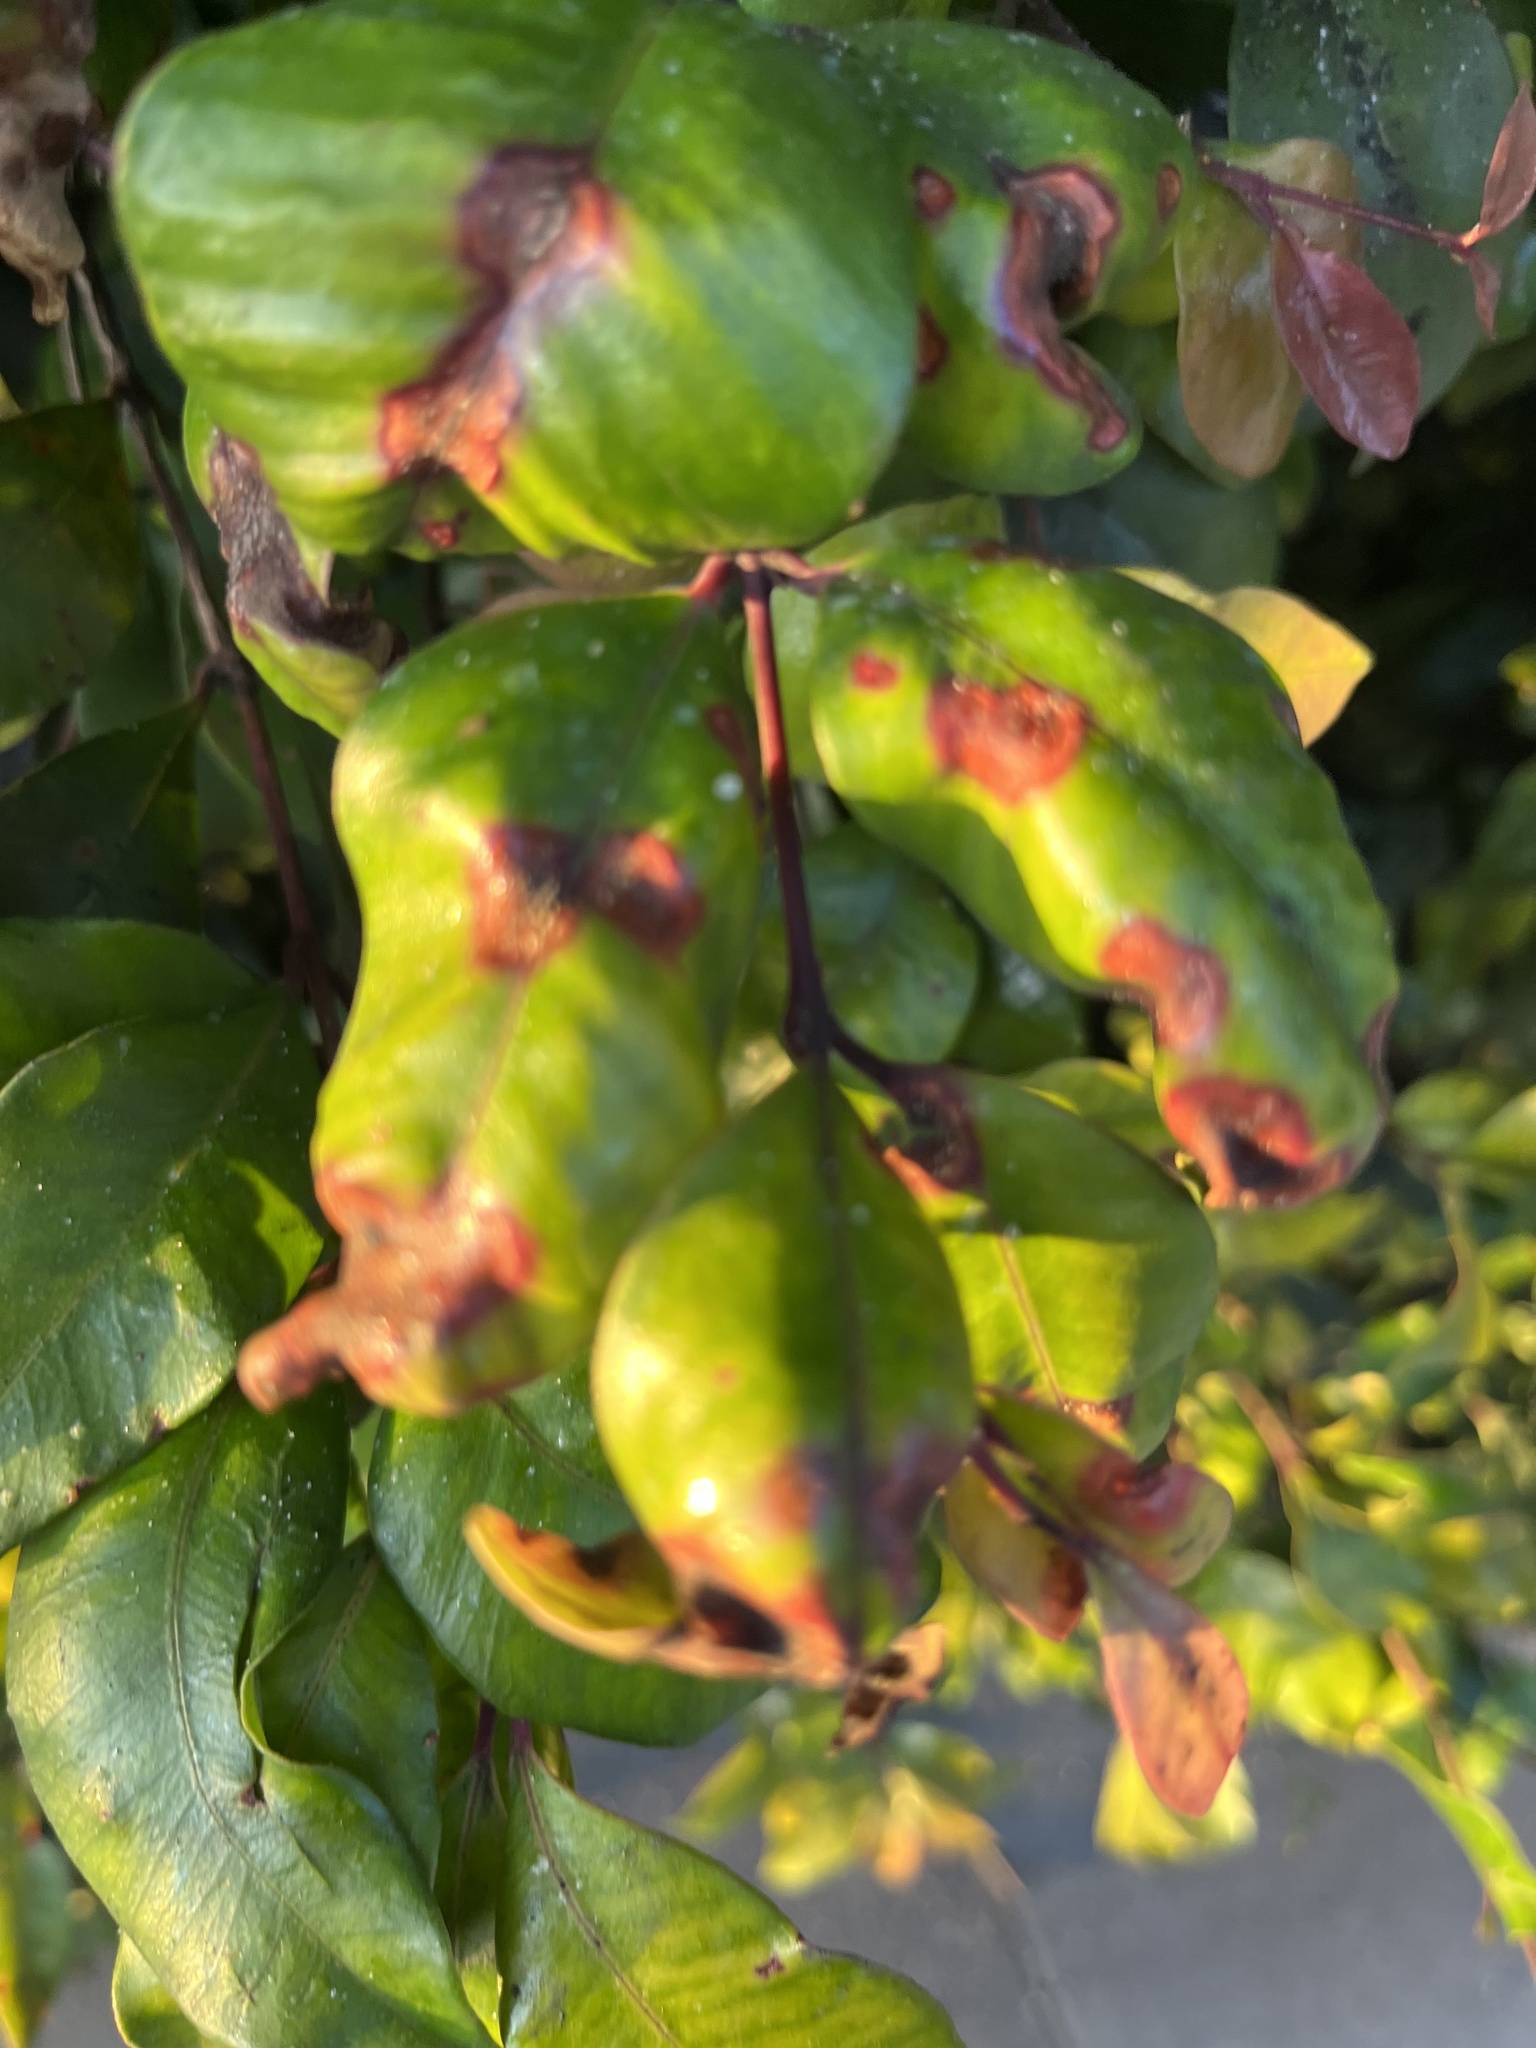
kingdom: Fungi
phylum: Basidiomycota
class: Pucciniomycetes
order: Pucciniales
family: Sphaerophragmiaceae
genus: Austropuccinia
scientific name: Austropuccinia psidii
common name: Myrtle rust
